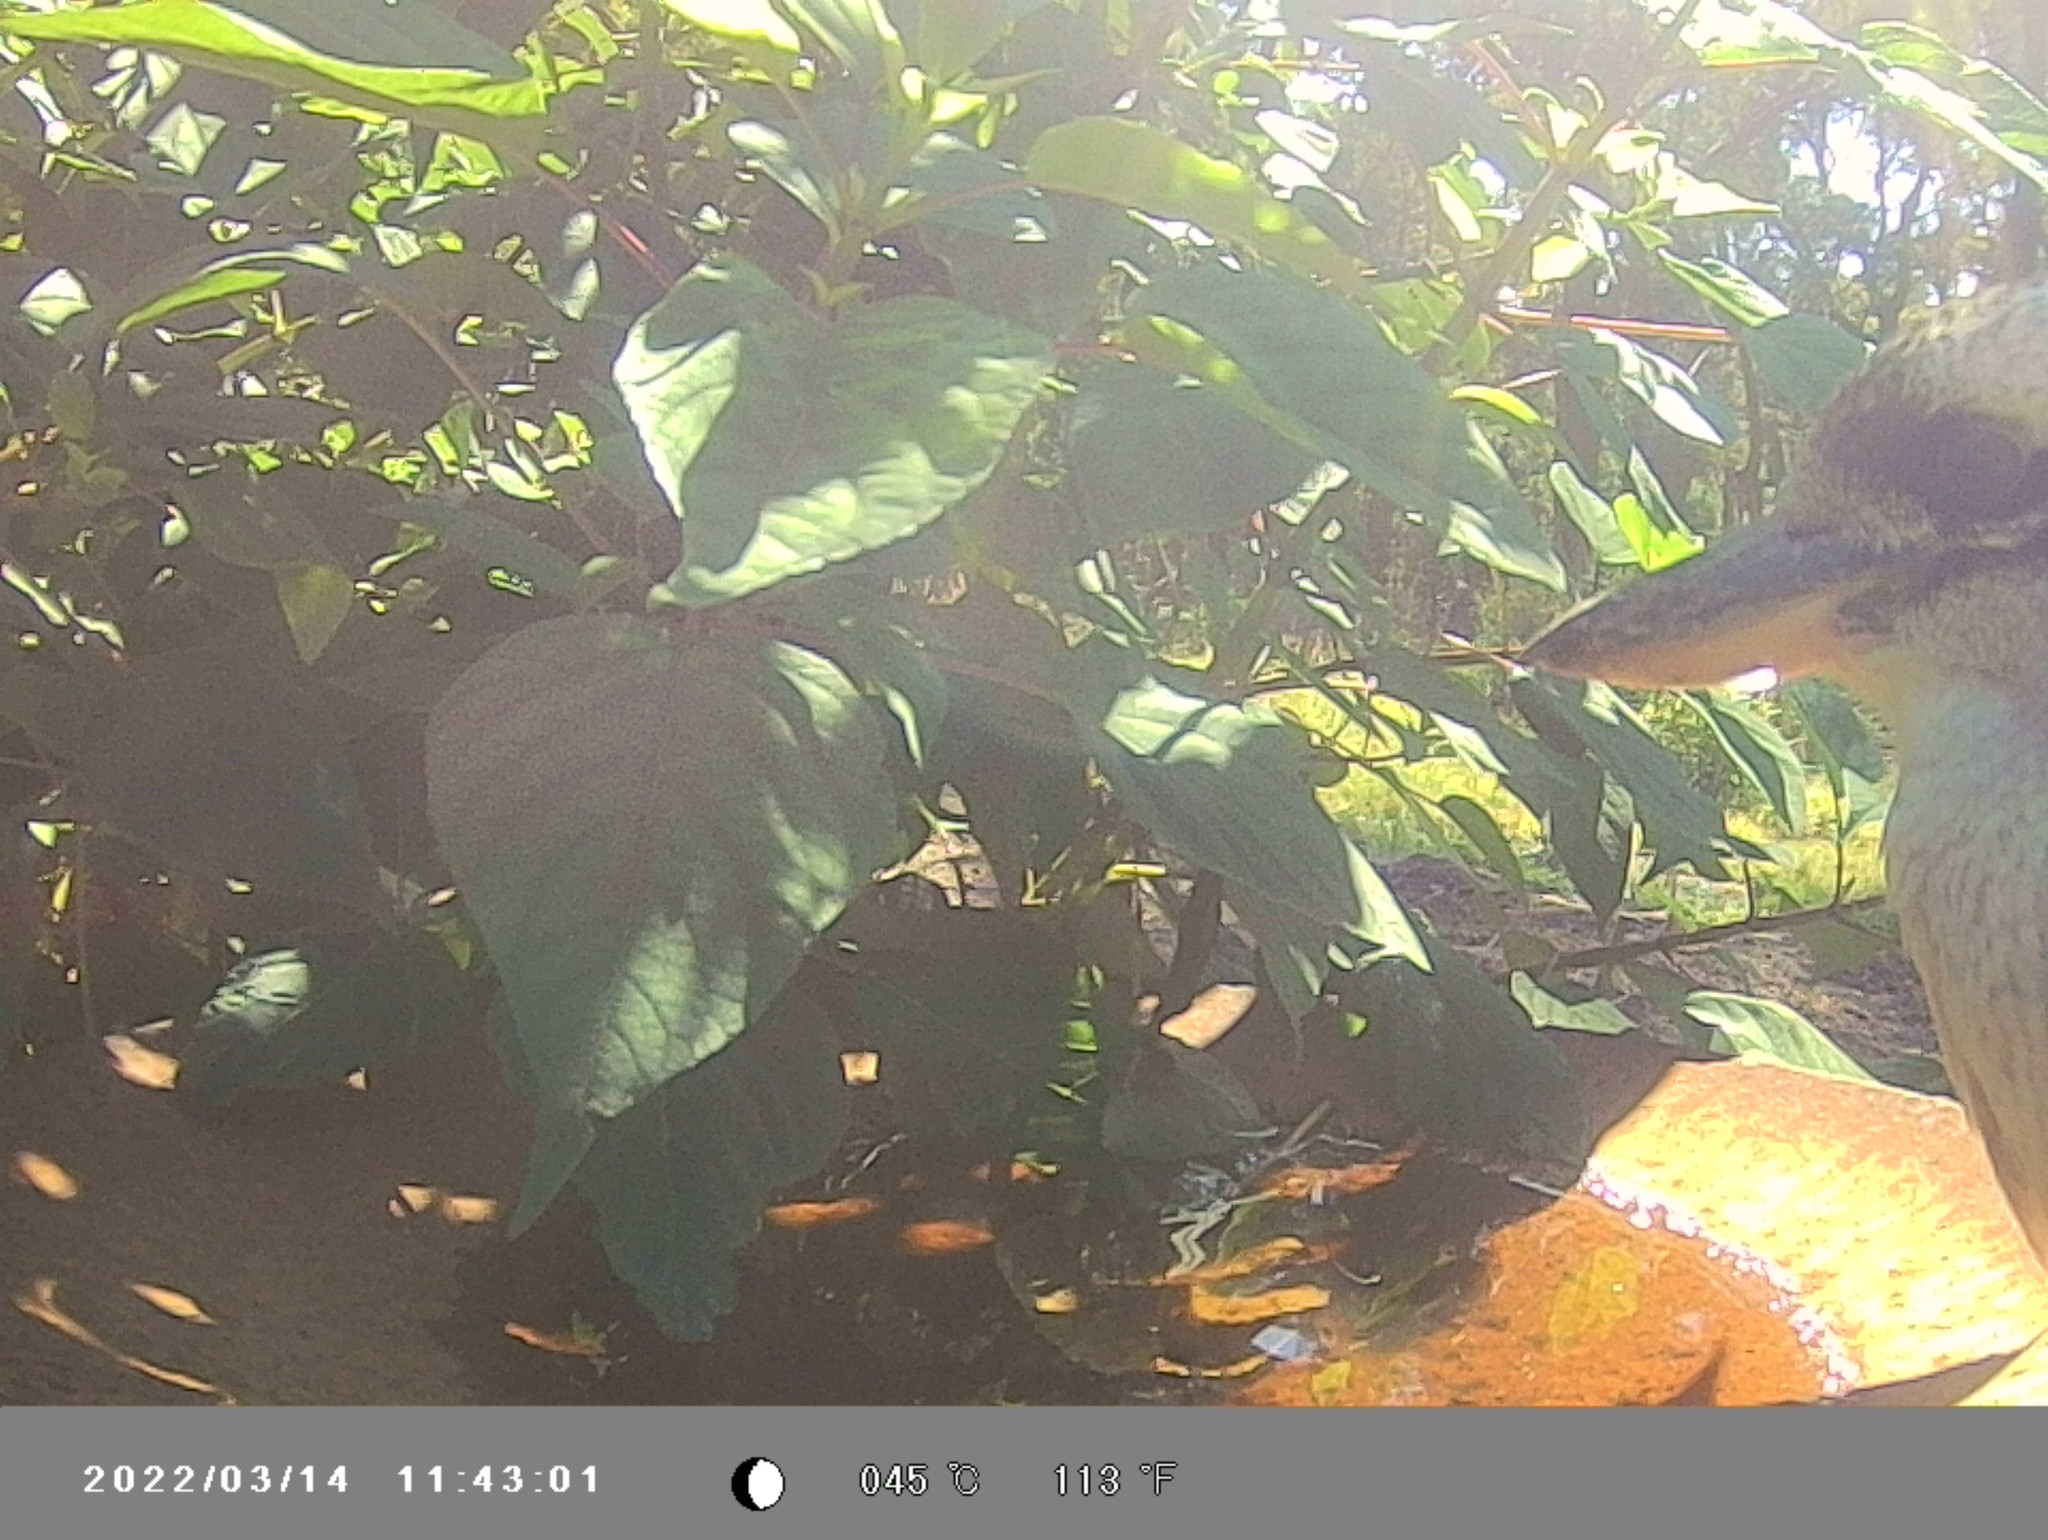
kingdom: Animalia
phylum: Chordata
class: Aves
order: Coraciiformes
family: Alcedinidae
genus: Dacelo
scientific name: Dacelo novaeguineae
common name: Laughing kookaburra
